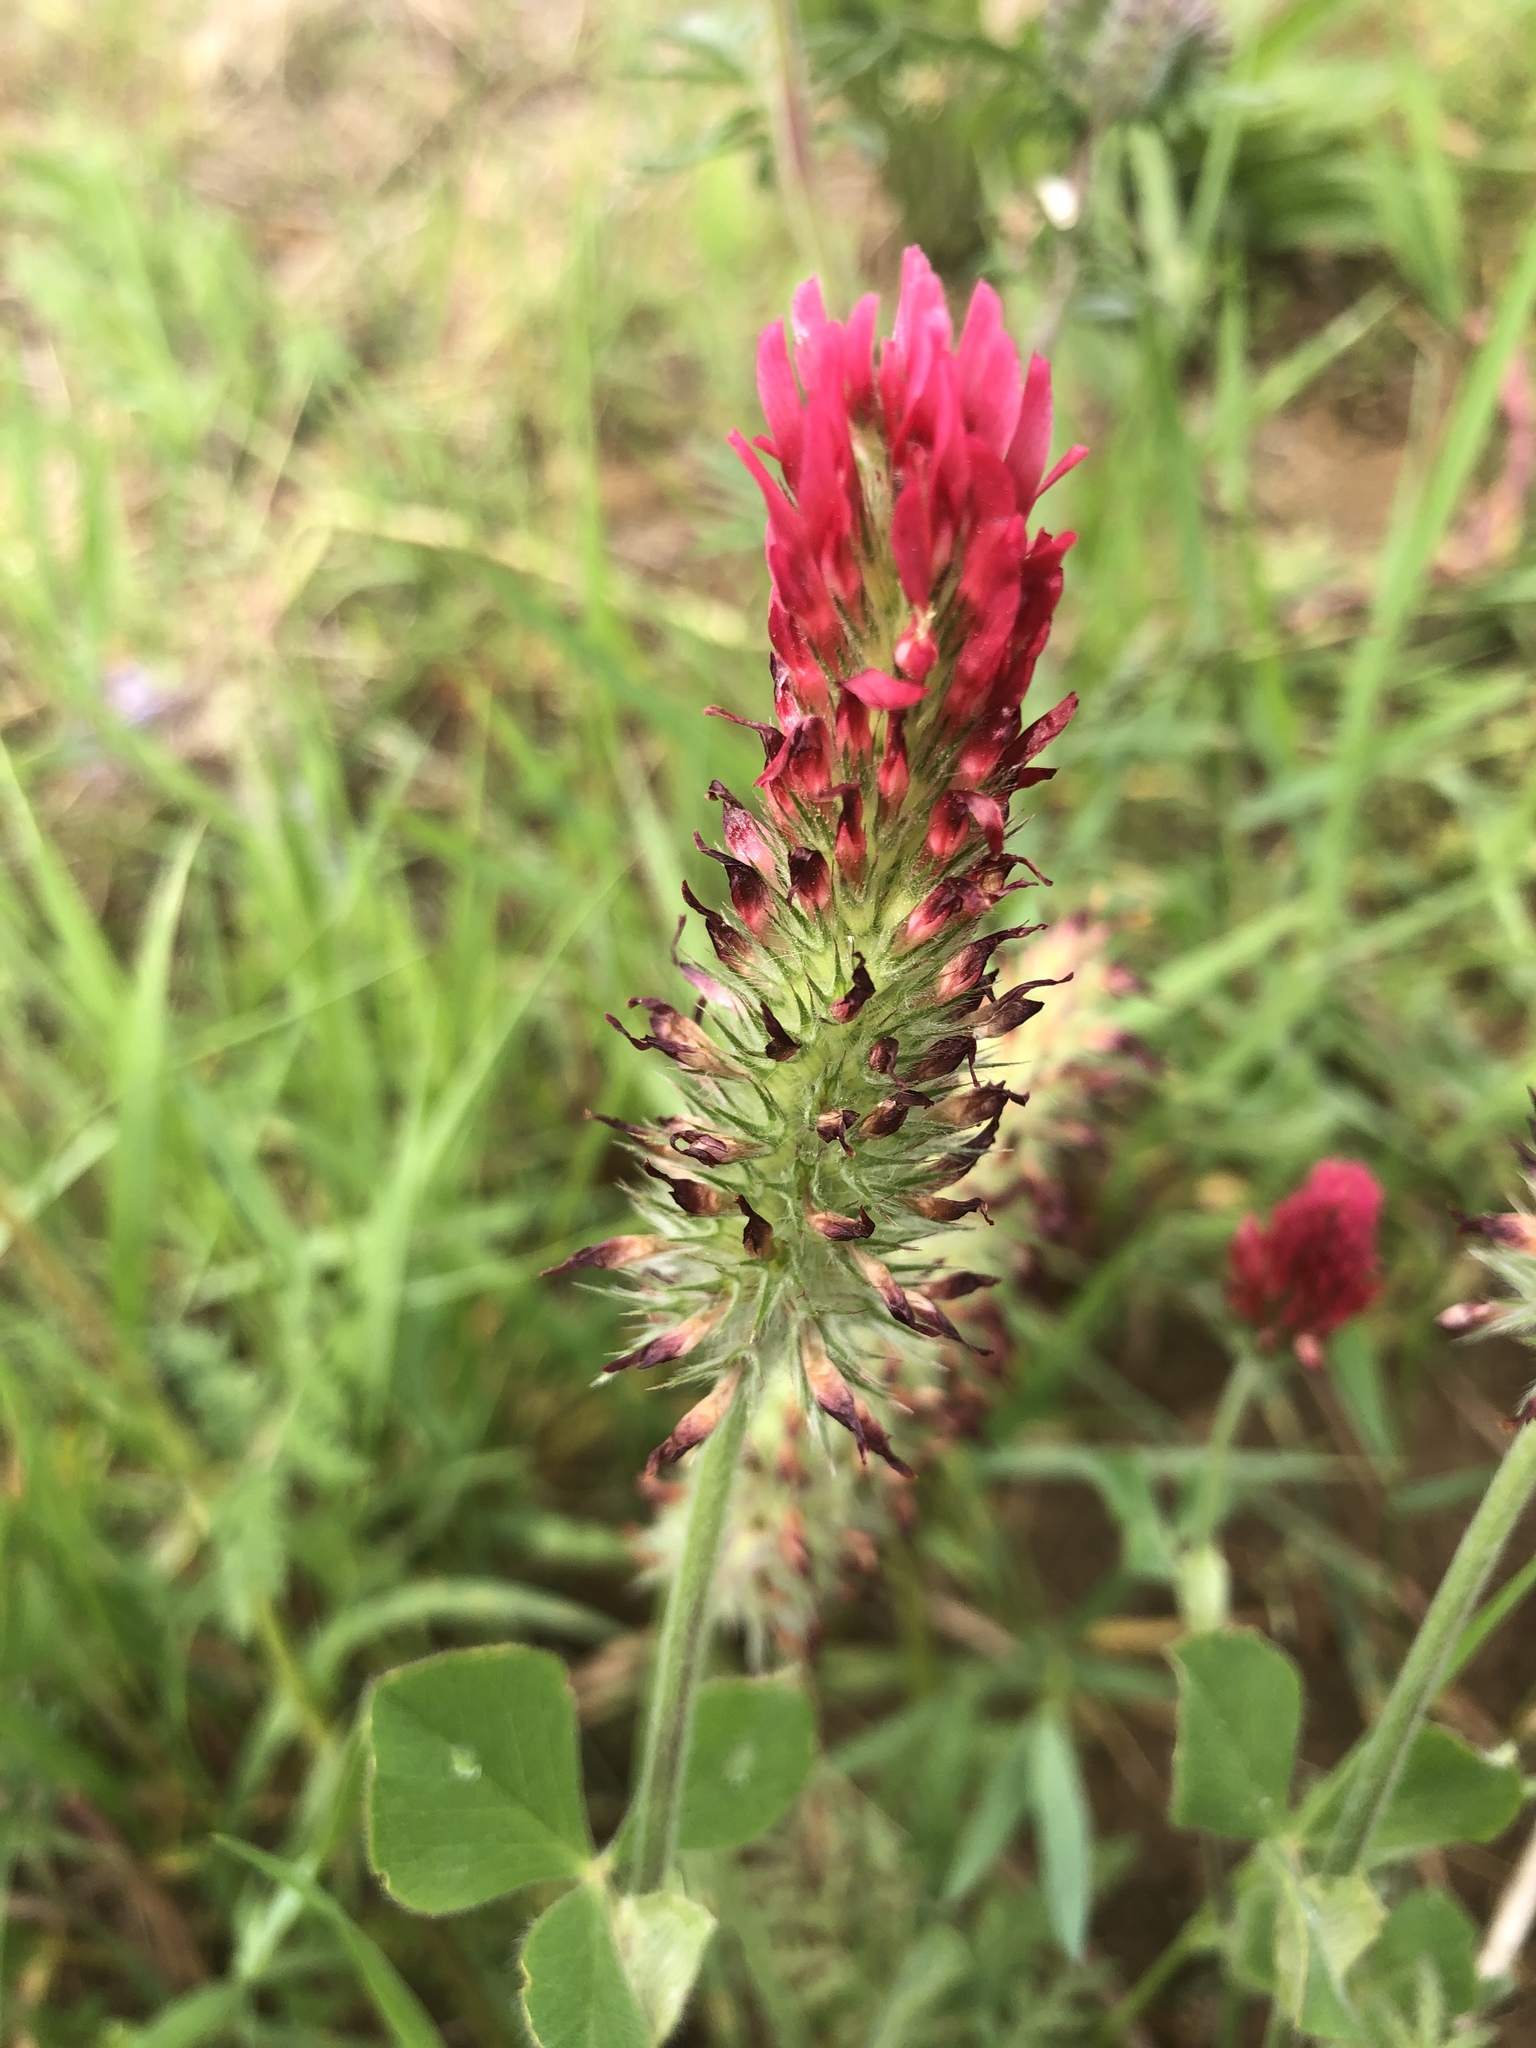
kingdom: Plantae
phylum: Tracheophyta
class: Magnoliopsida
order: Fabales
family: Fabaceae
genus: Trifolium
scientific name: Trifolium incarnatum
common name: Crimson clover
